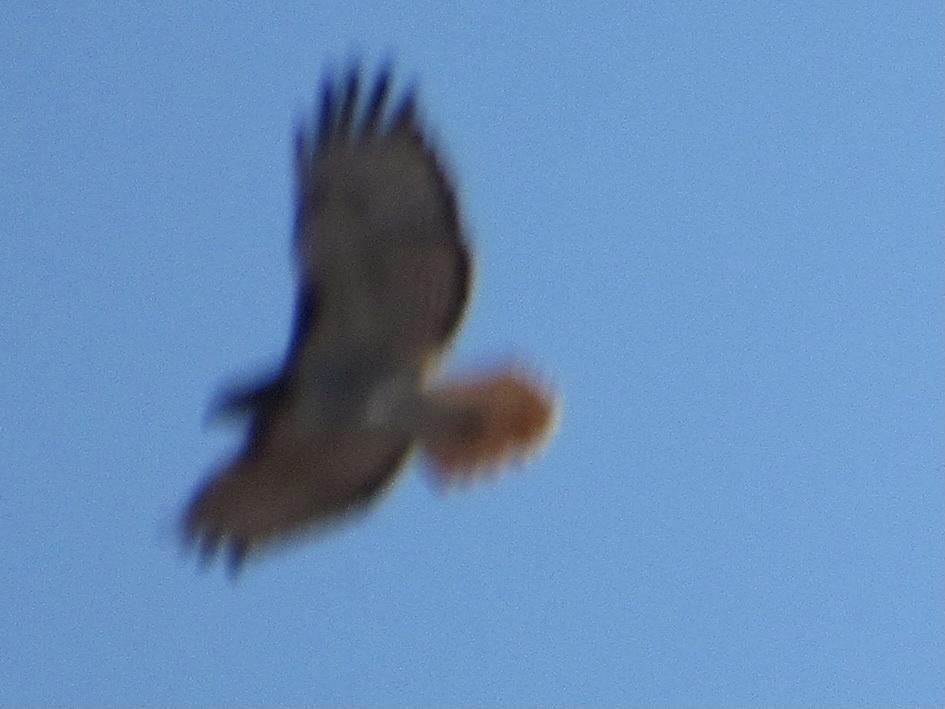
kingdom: Animalia
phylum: Chordata
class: Aves
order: Accipitriformes
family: Accipitridae
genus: Buteo
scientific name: Buteo jamaicensis
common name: Red-tailed hawk
